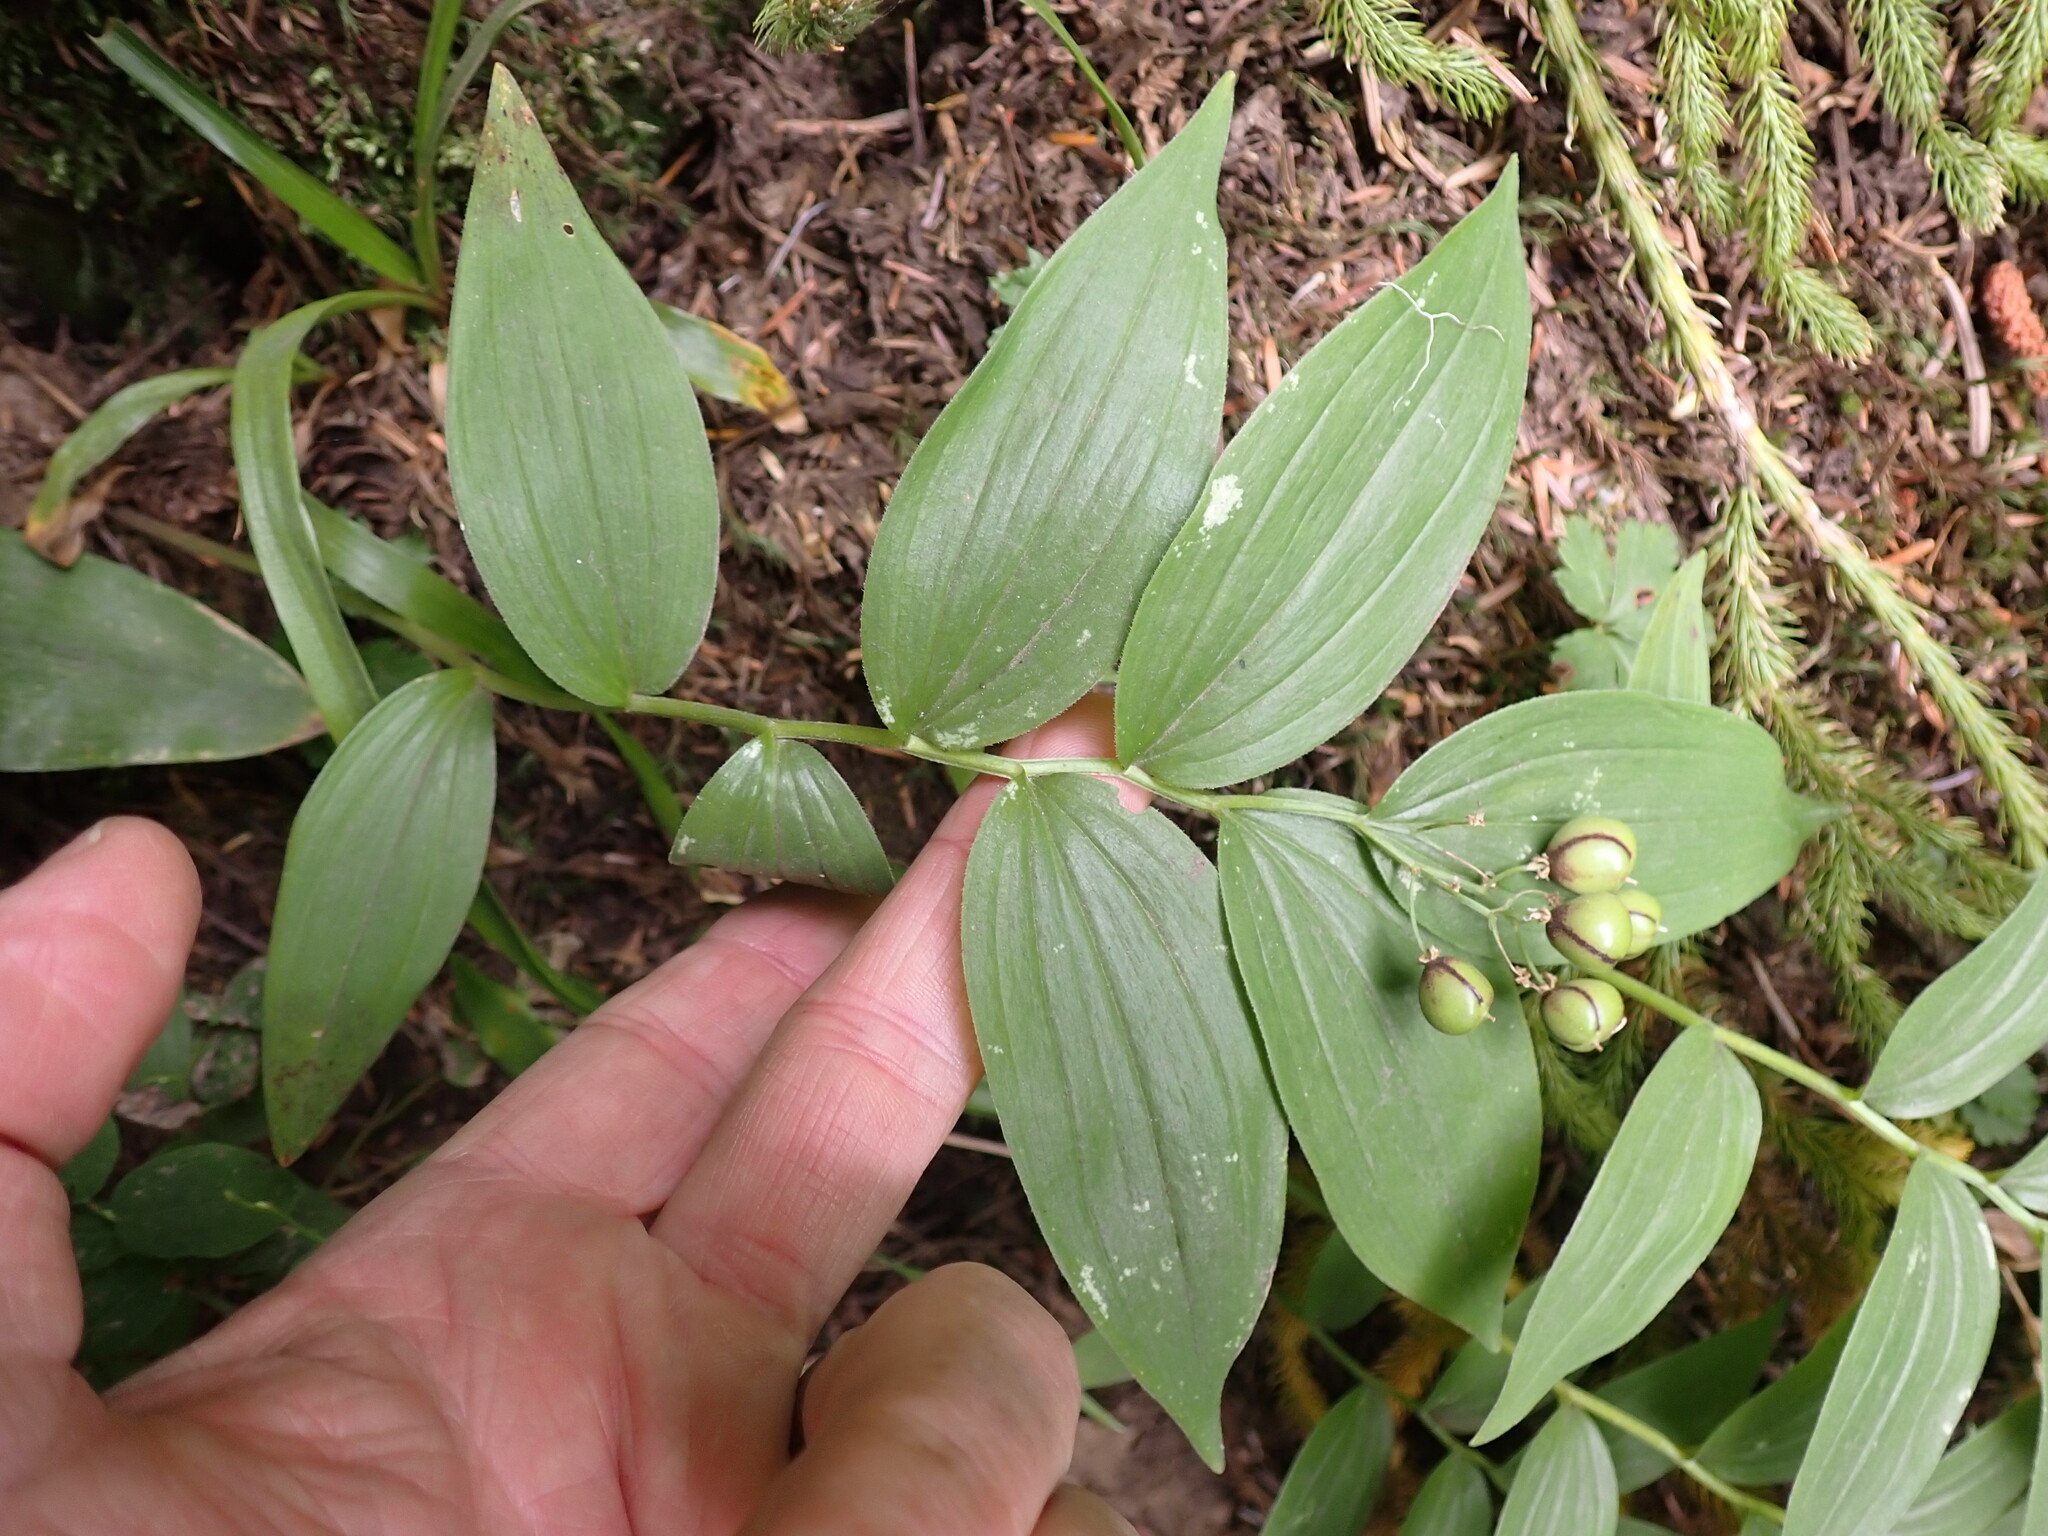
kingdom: Plantae
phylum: Tracheophyta
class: Liliopsida
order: Asparagales
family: Asparagaceae
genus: Maianthemum
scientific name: Maianthemum stellatum
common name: Little false solomon's seal
